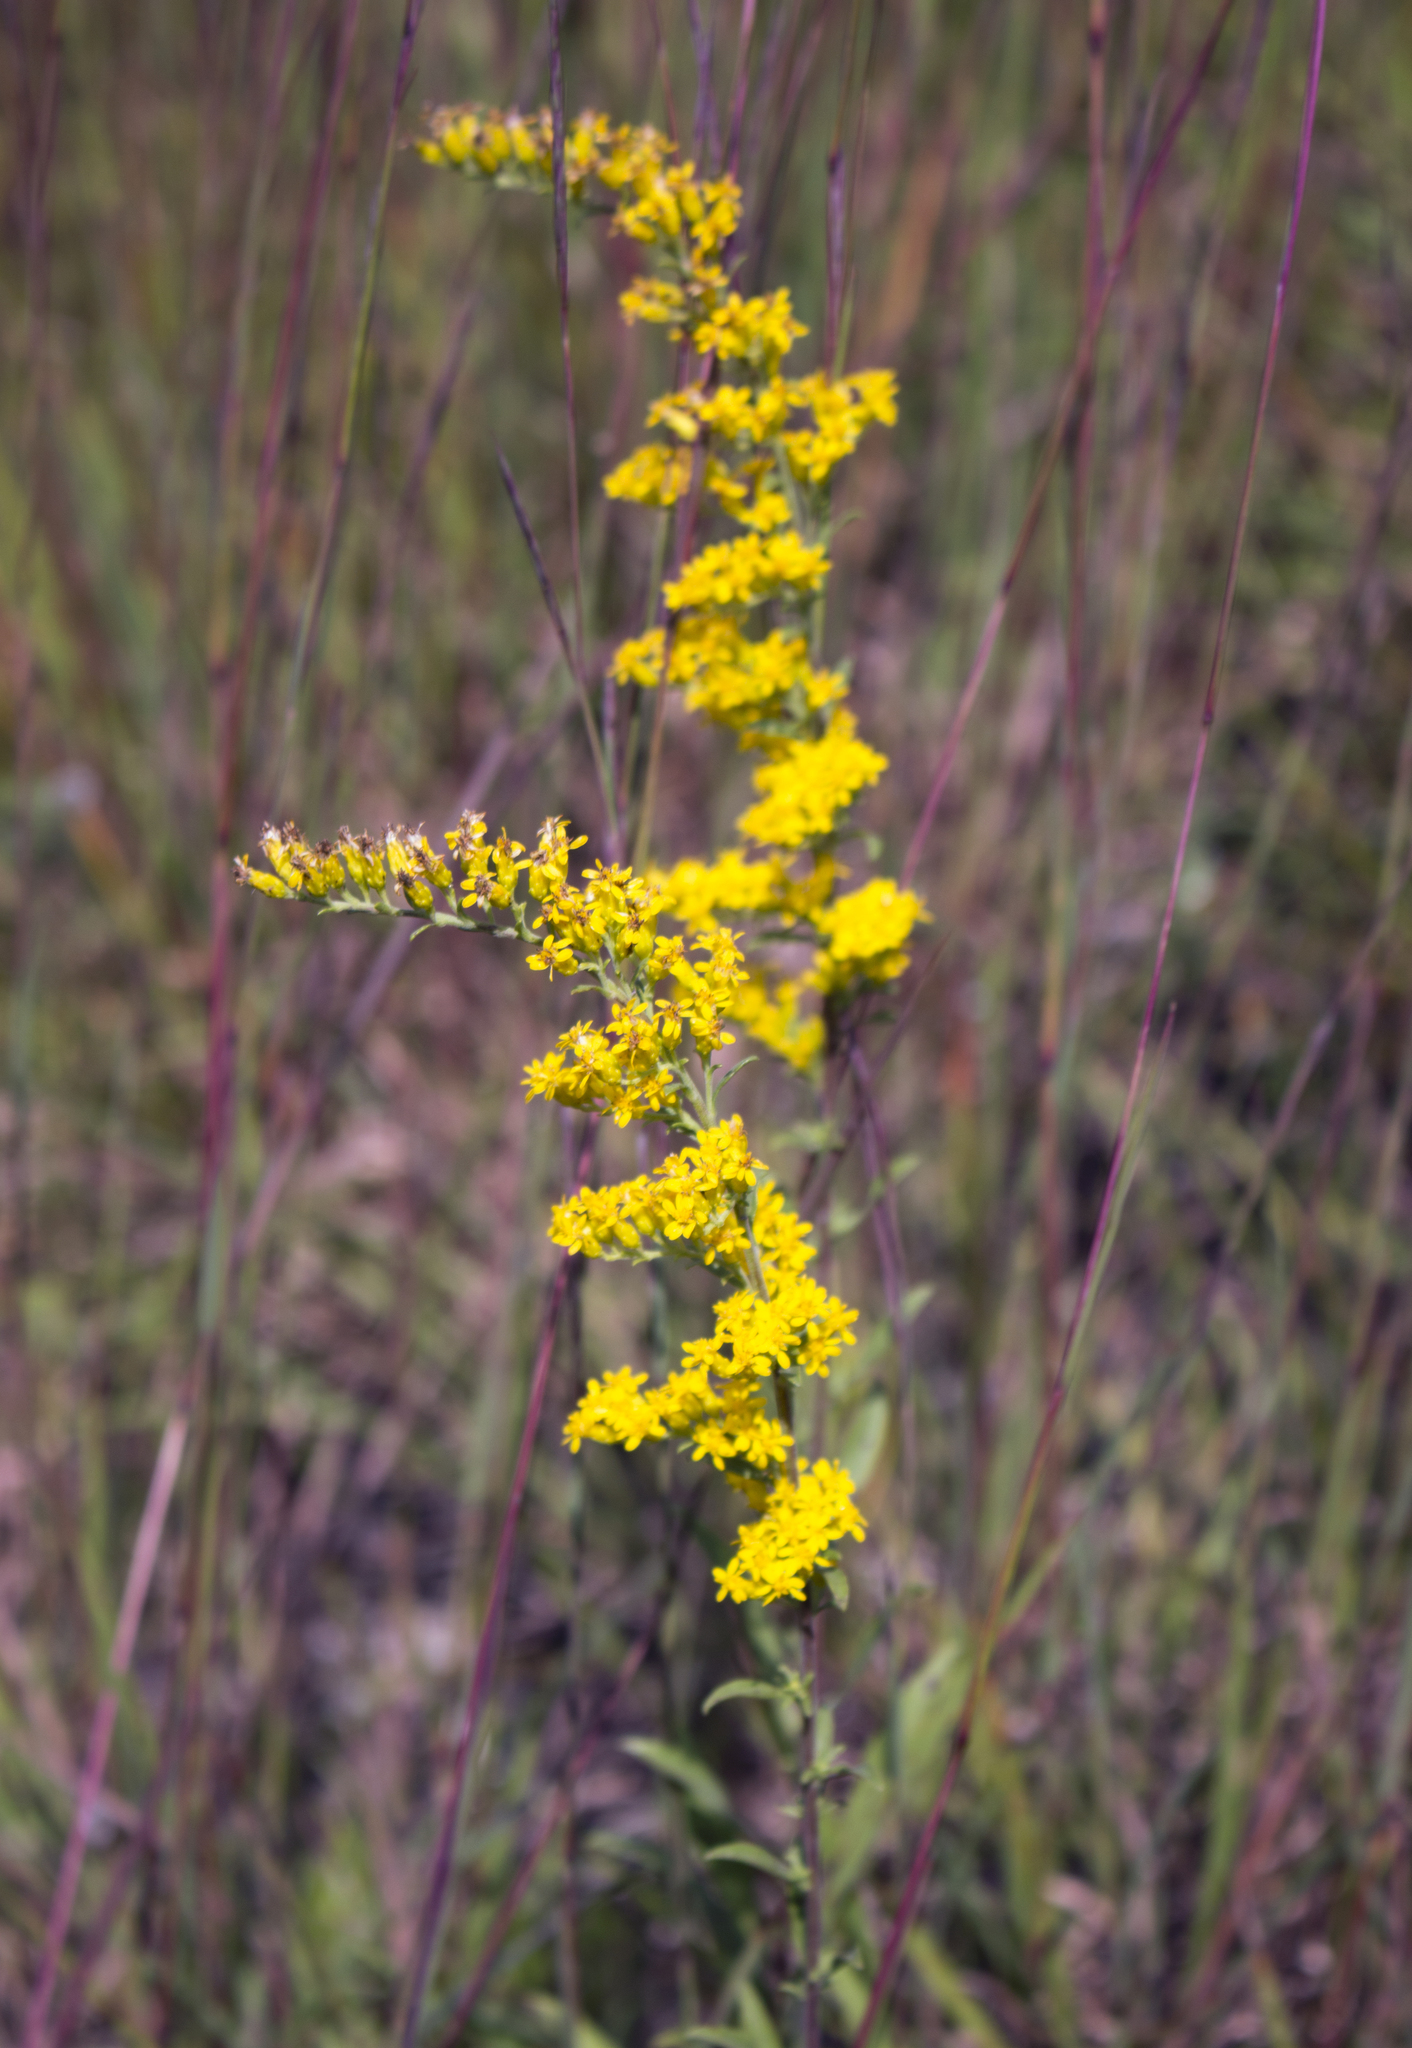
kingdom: Plantae
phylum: Tracheophyta
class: Magnoliopsida
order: Asterales
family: Asteraceae
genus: Solidago
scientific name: Solidago nemoralis
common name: Grey goldenrod
